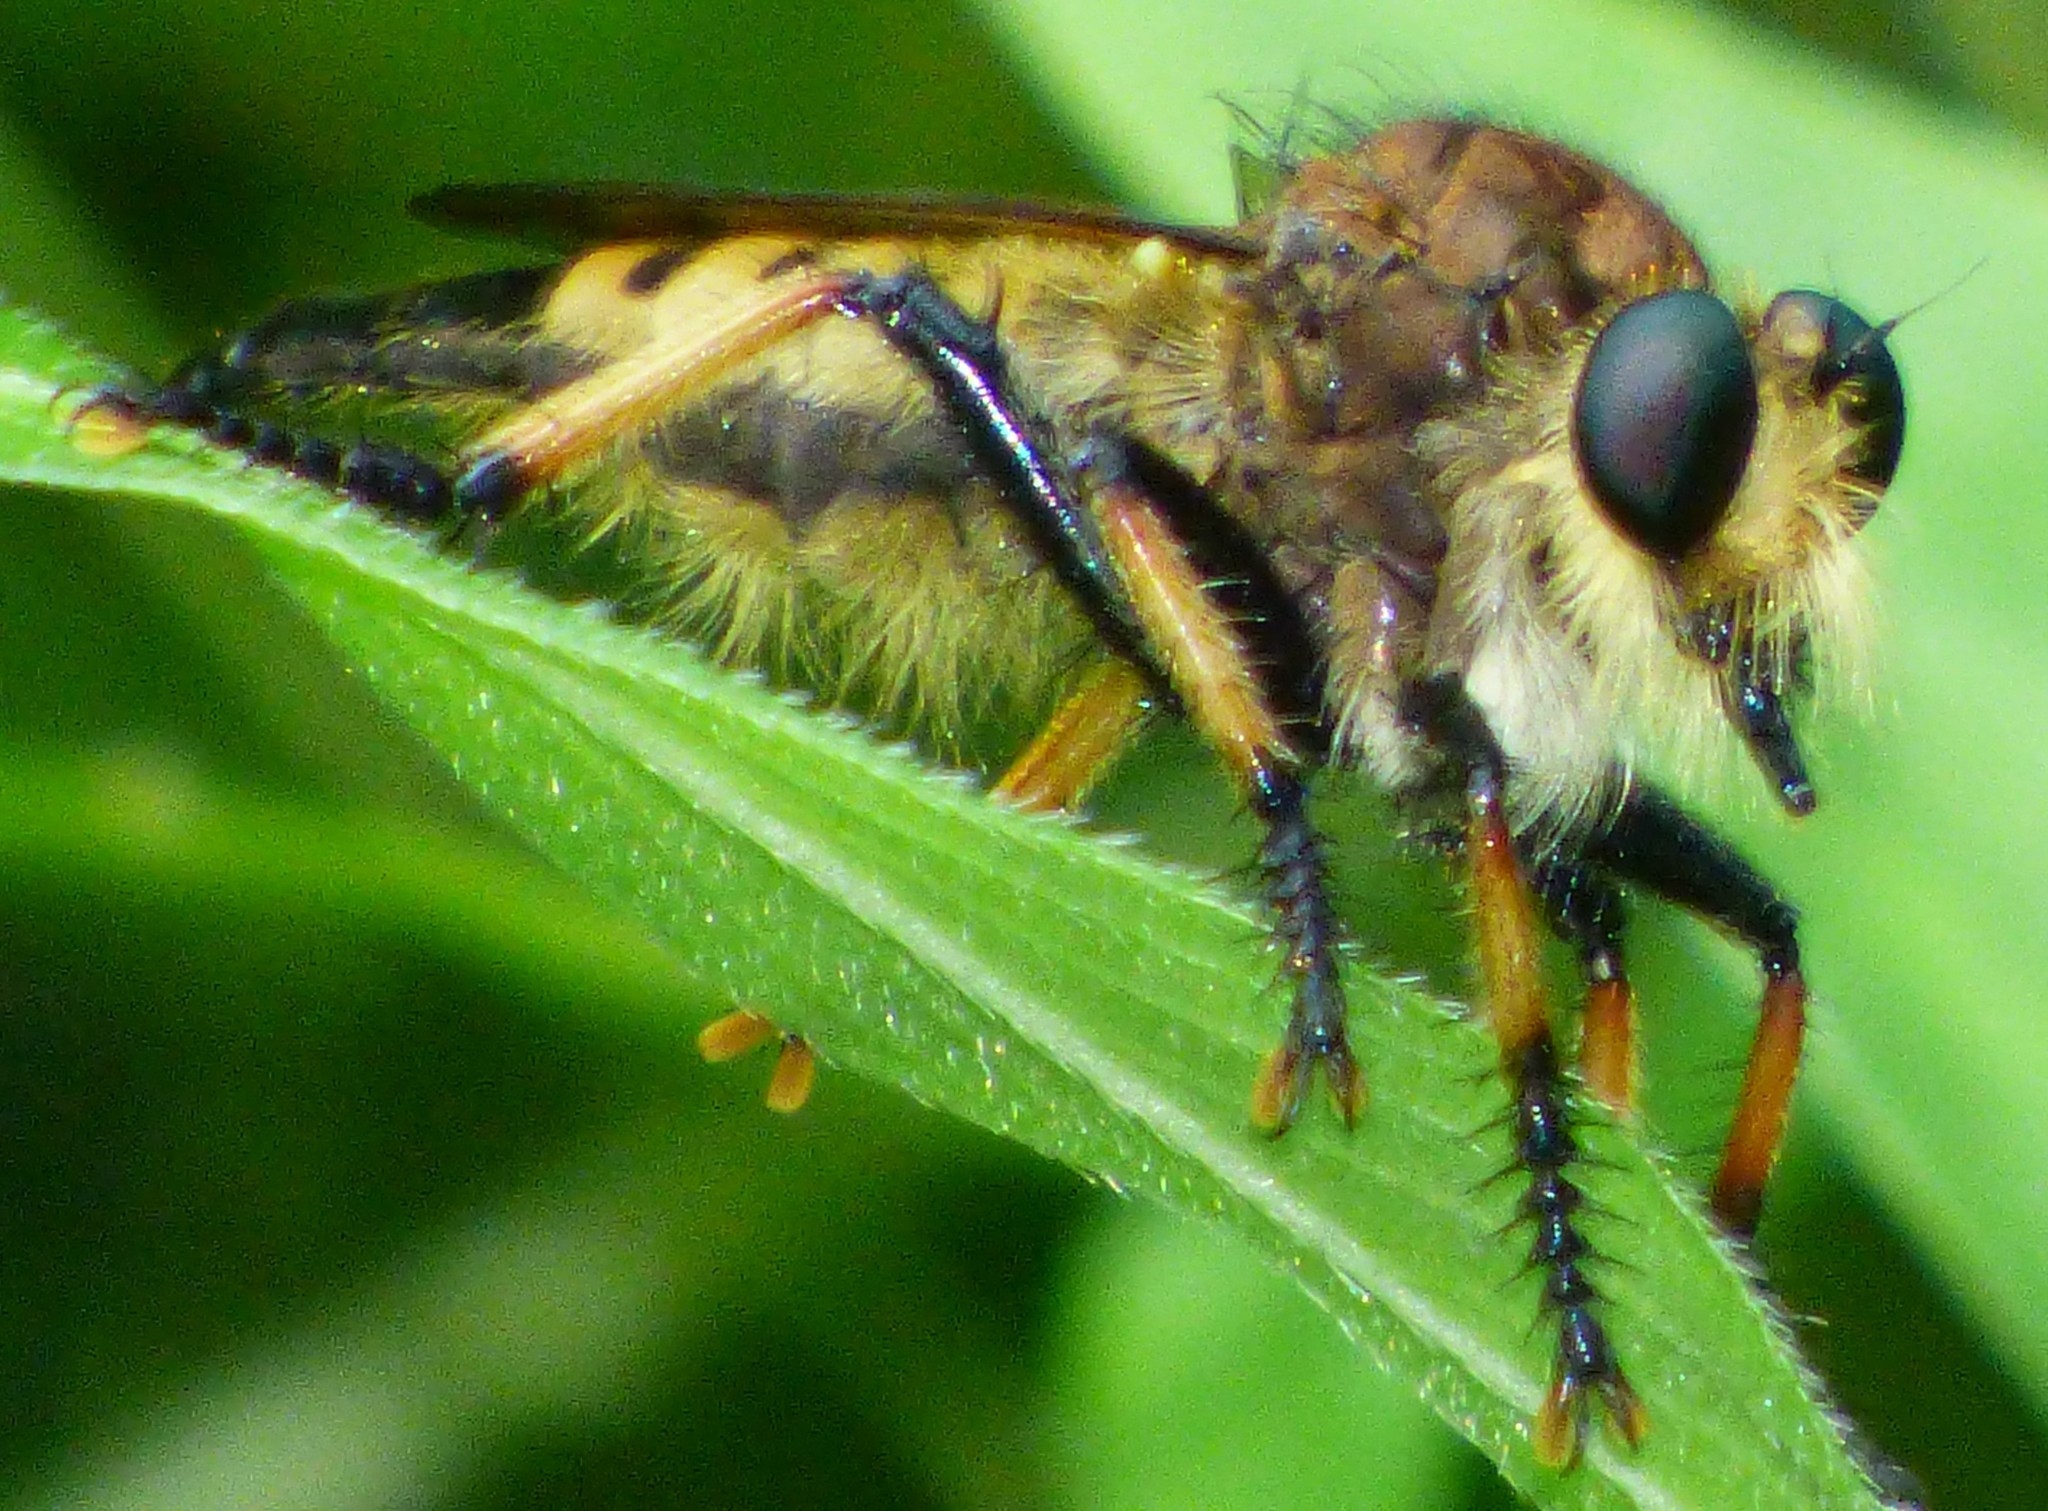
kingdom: Animalia
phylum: Arthropoda
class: Insecta
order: Diptera
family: Asilidae
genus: Promachus
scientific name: Promachus rufipes
